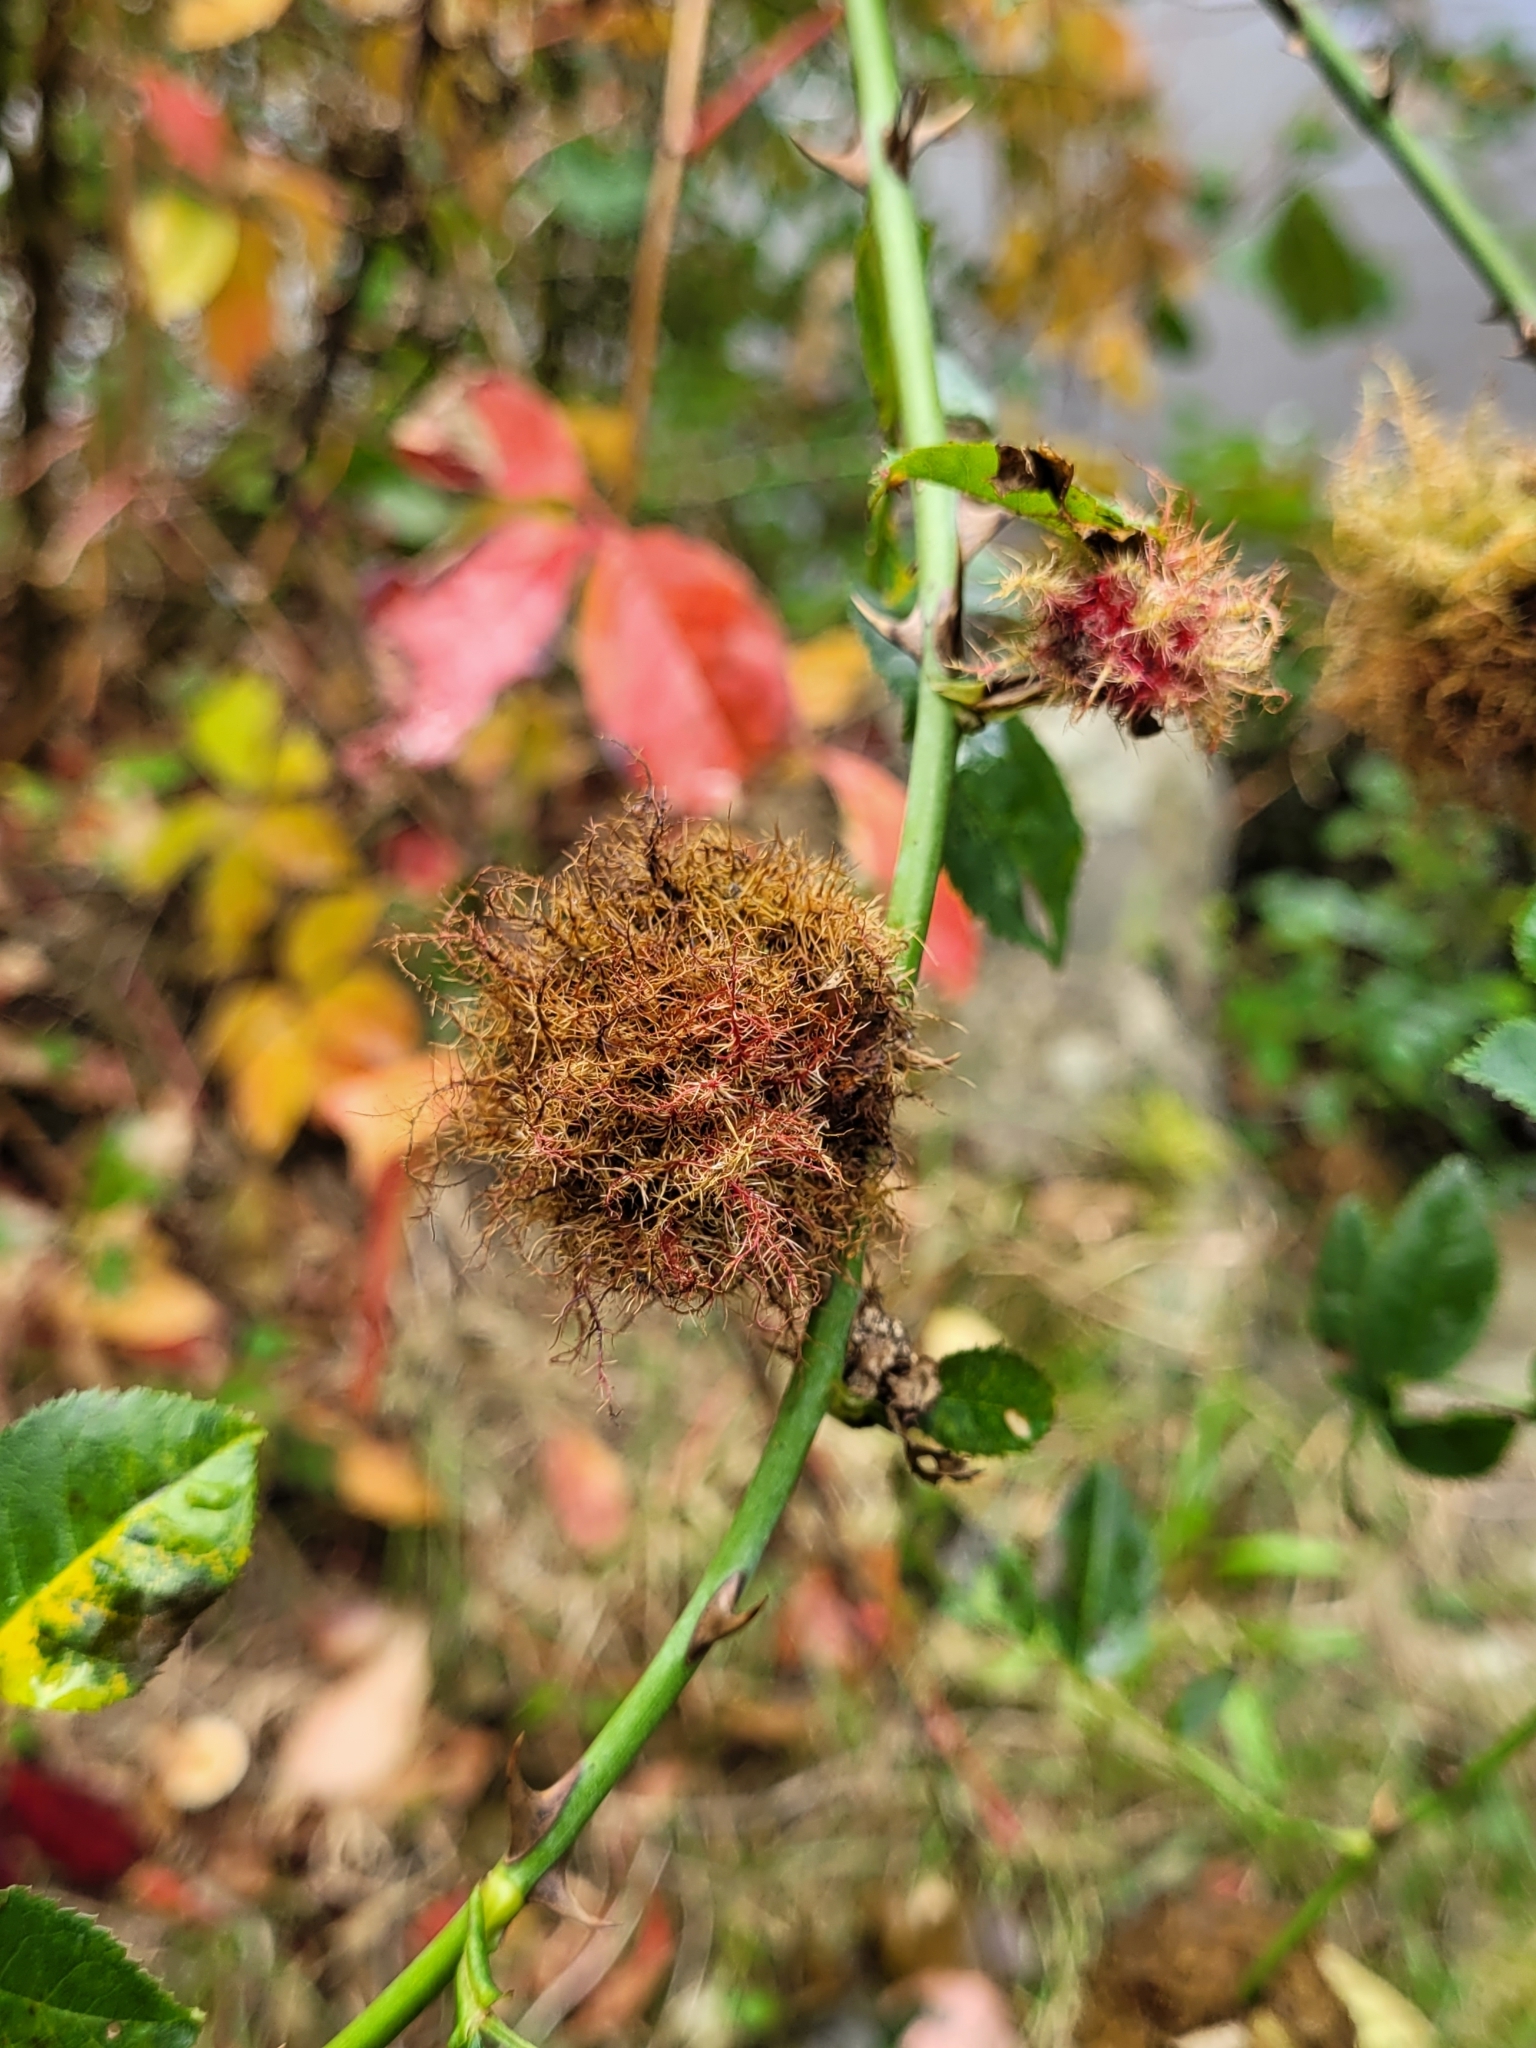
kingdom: Animalia
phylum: Arthropoda
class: Insecta
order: Hymenoptera
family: Cynipidae
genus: Diplolepis
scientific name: Diplolepis rosae
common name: Bedeguar gall
